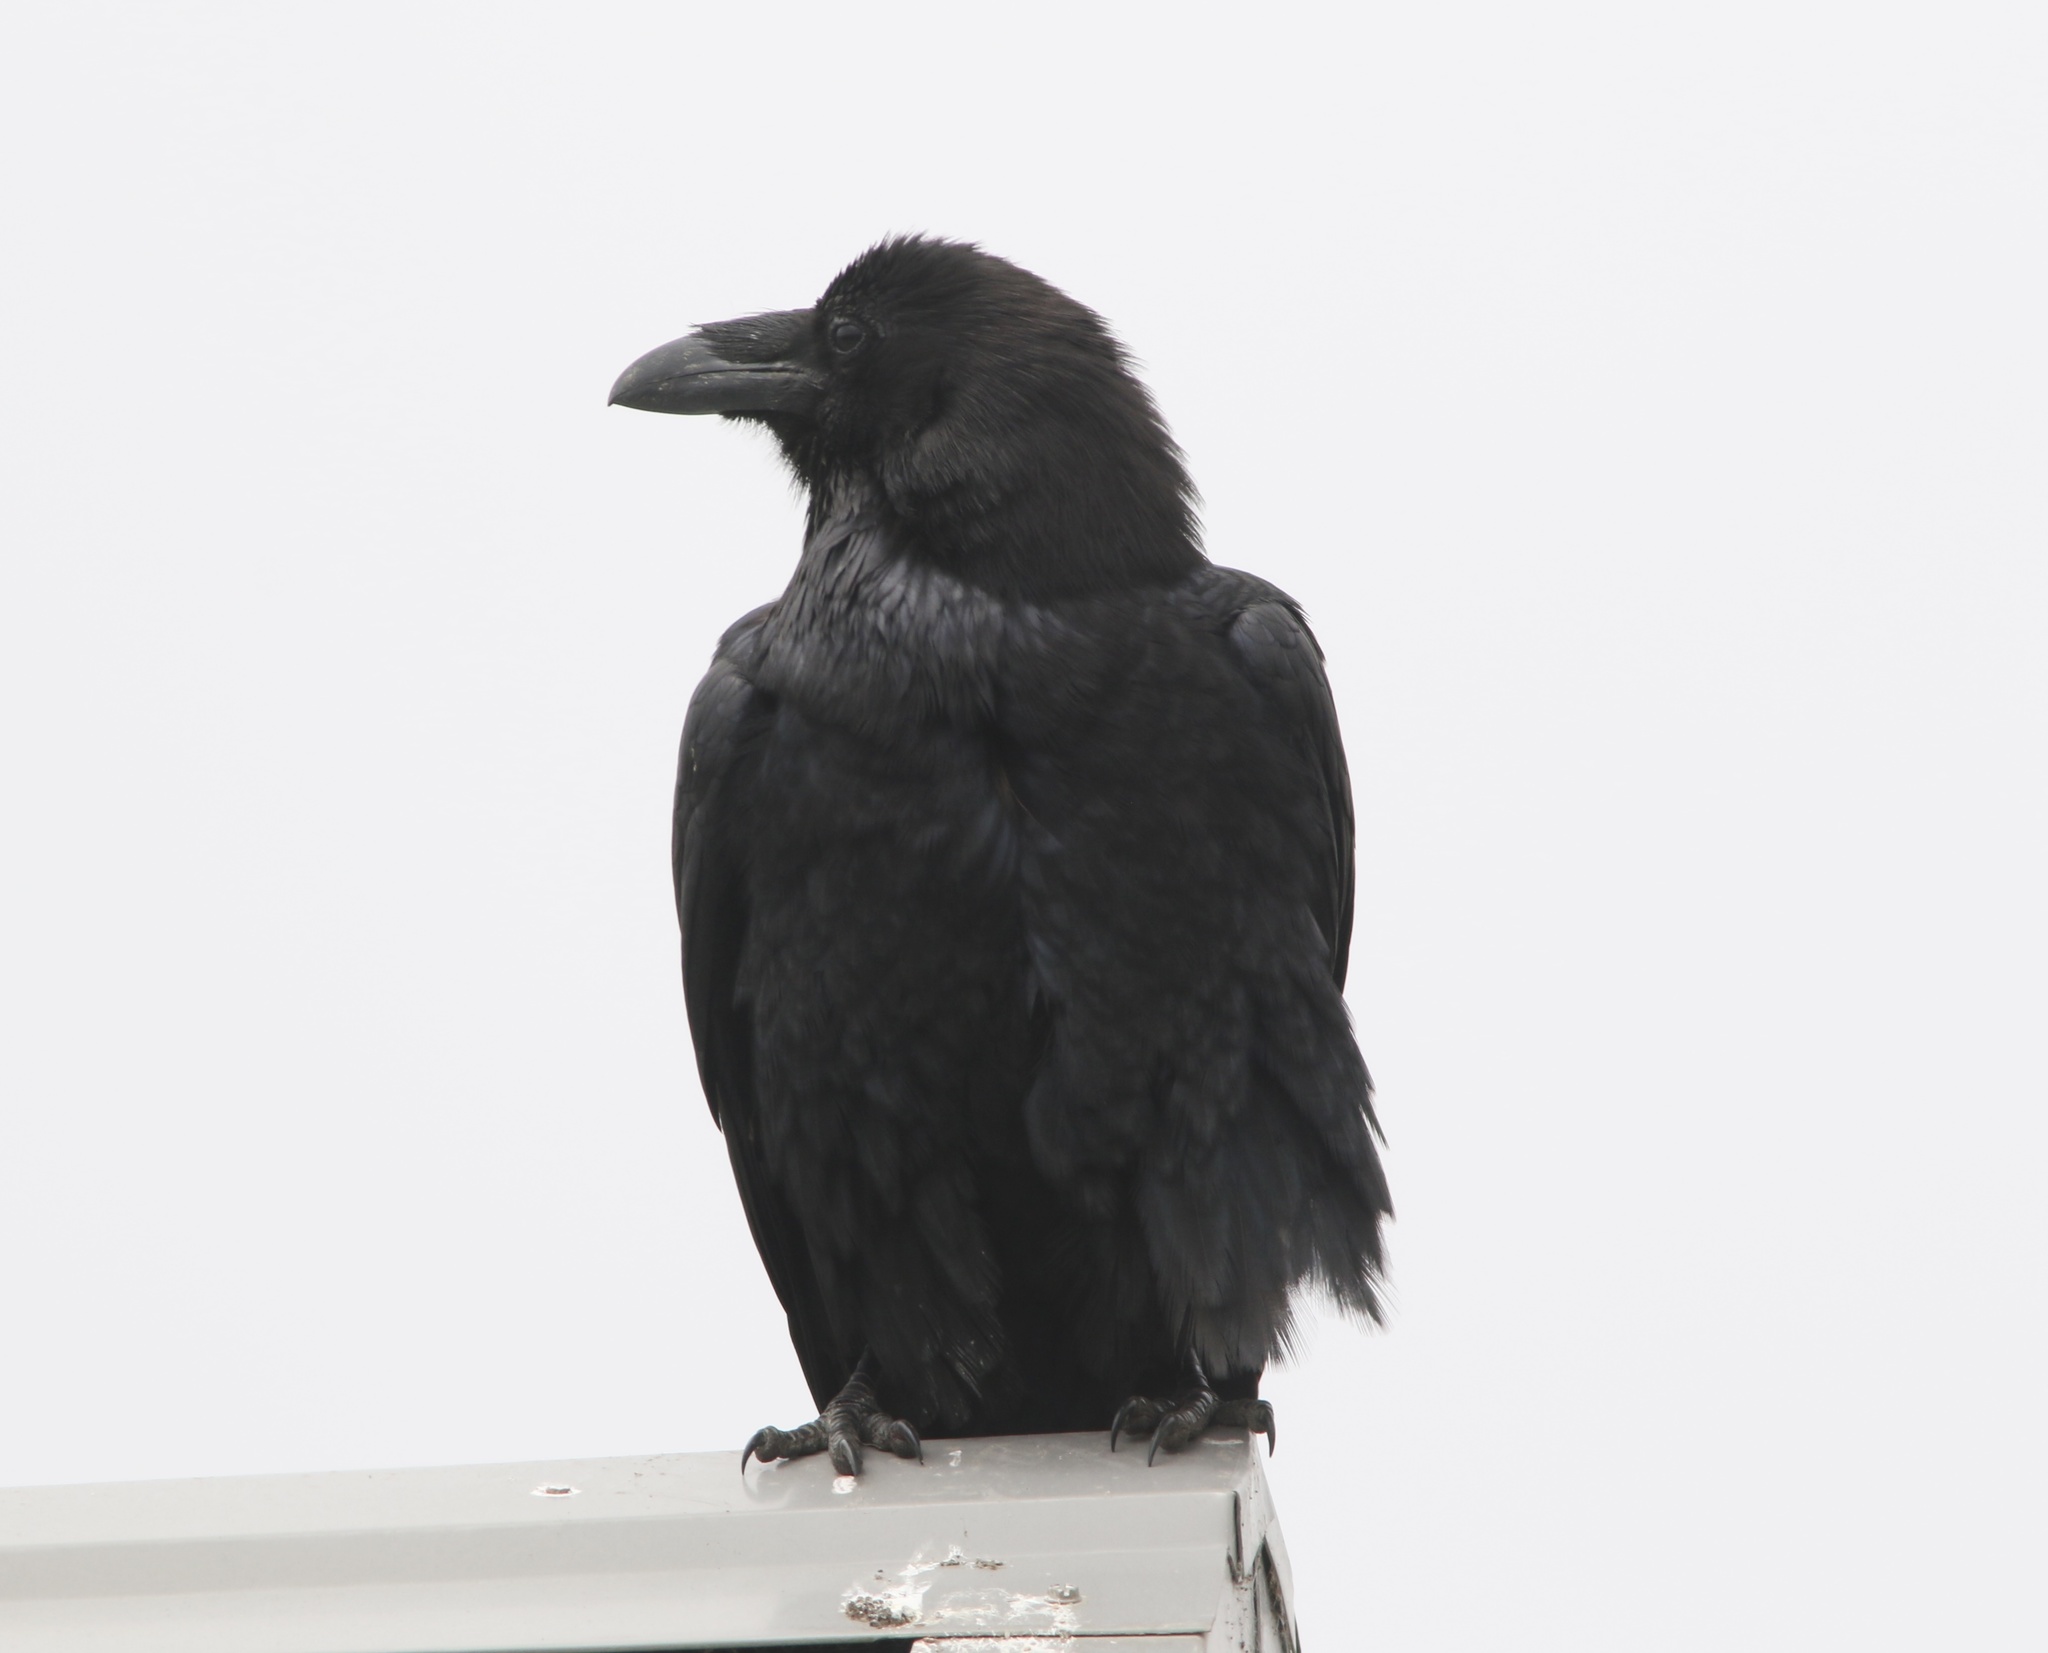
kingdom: Animalia
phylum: Chordata
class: Aves
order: Passeriformes
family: Corvidae
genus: Corvus
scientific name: Corvus corax
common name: Common raven
